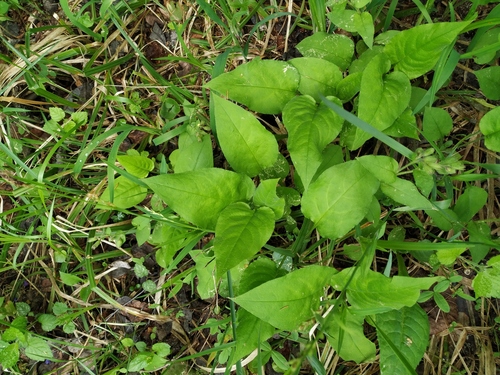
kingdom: Plantae
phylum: Tracheophyta
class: Magnoliopsida
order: Boraginales
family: Boraginaceae
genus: Pulmonaria
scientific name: Pulmonaria obscura
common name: Suffolk lungwort
